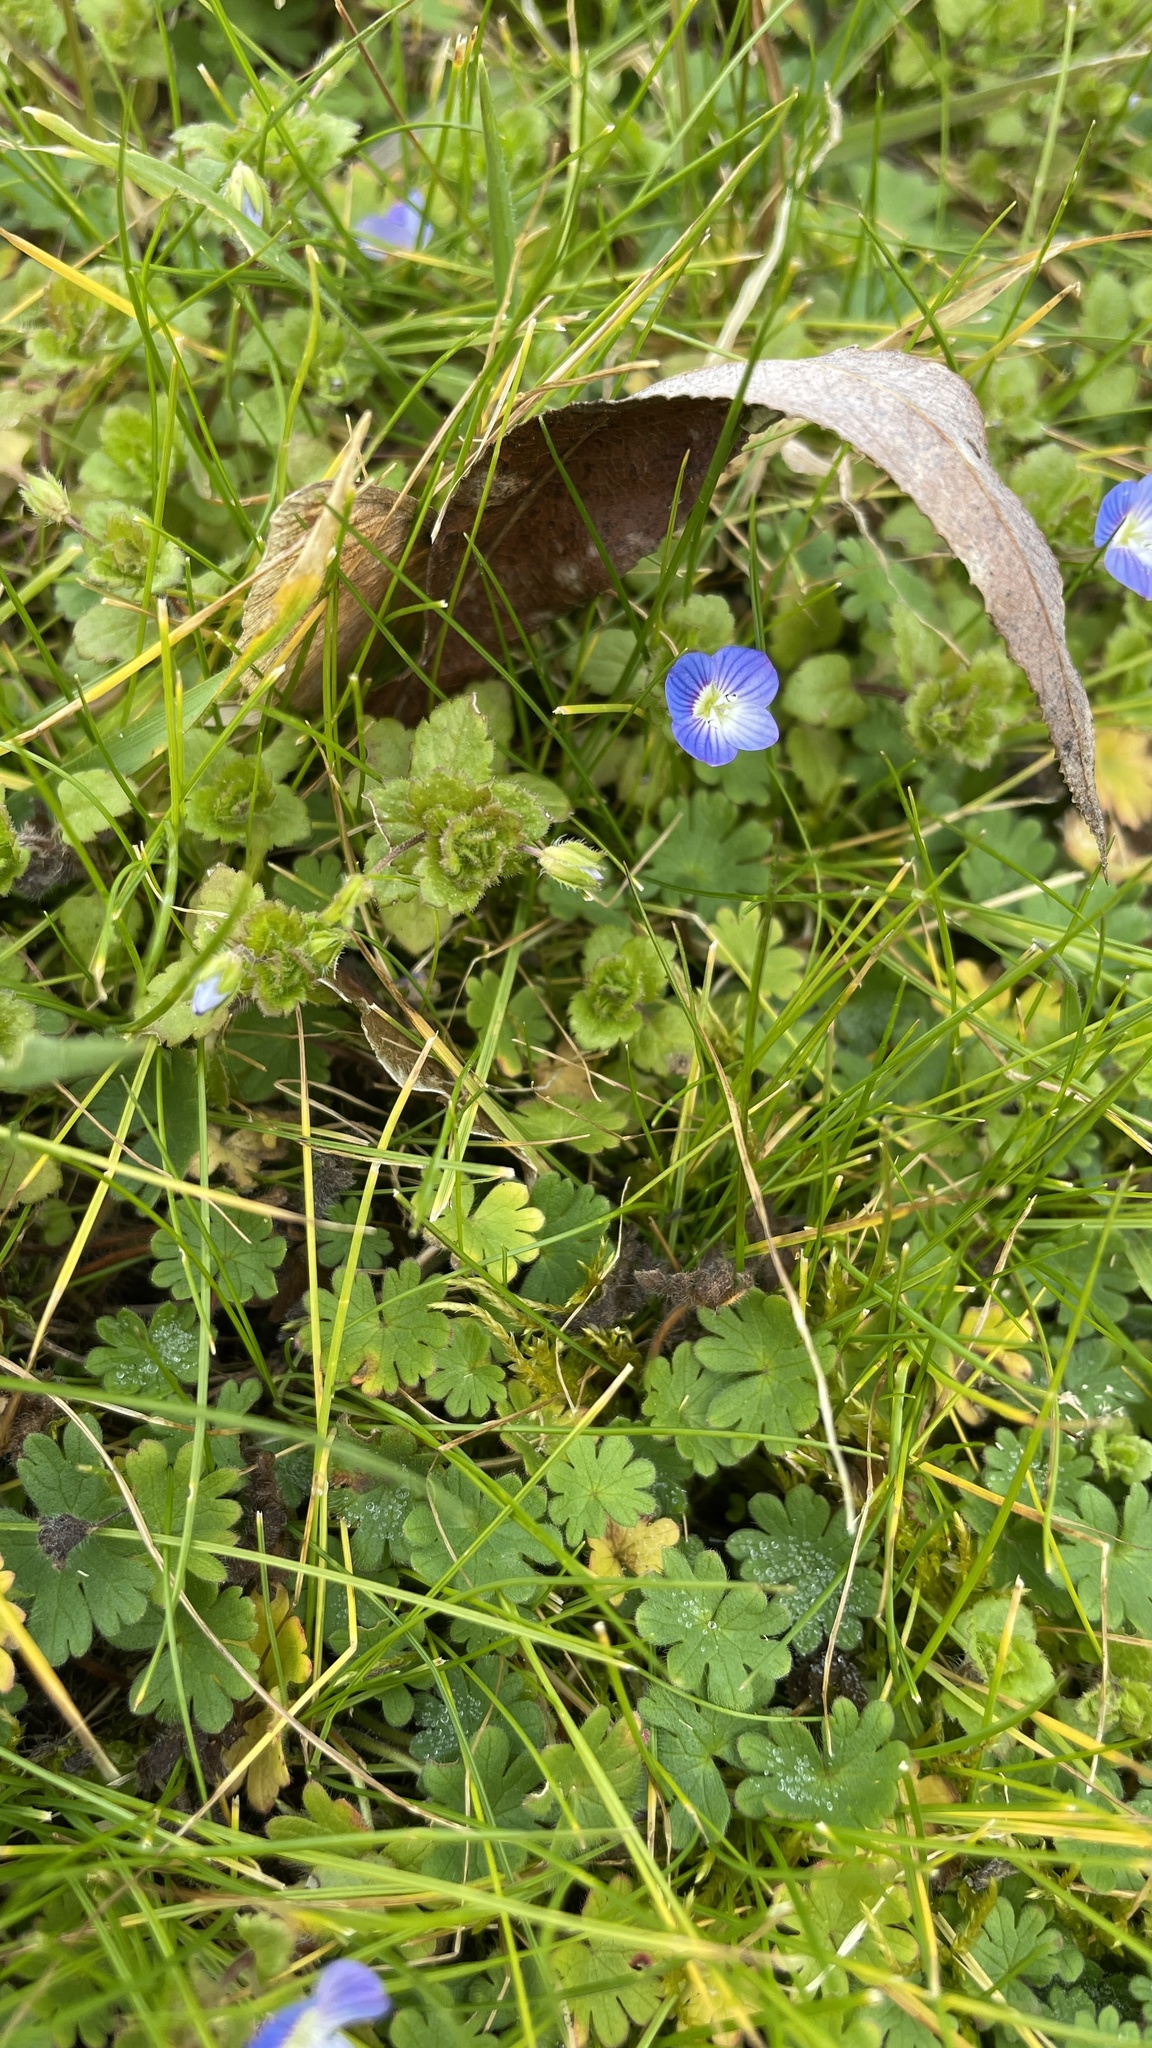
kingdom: Plantae
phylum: Tracheophyta
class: Magnoliopsida
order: Lamiales
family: Plantaginaceae
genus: Veronica
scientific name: Veronica persica
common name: Common field-speedwell
